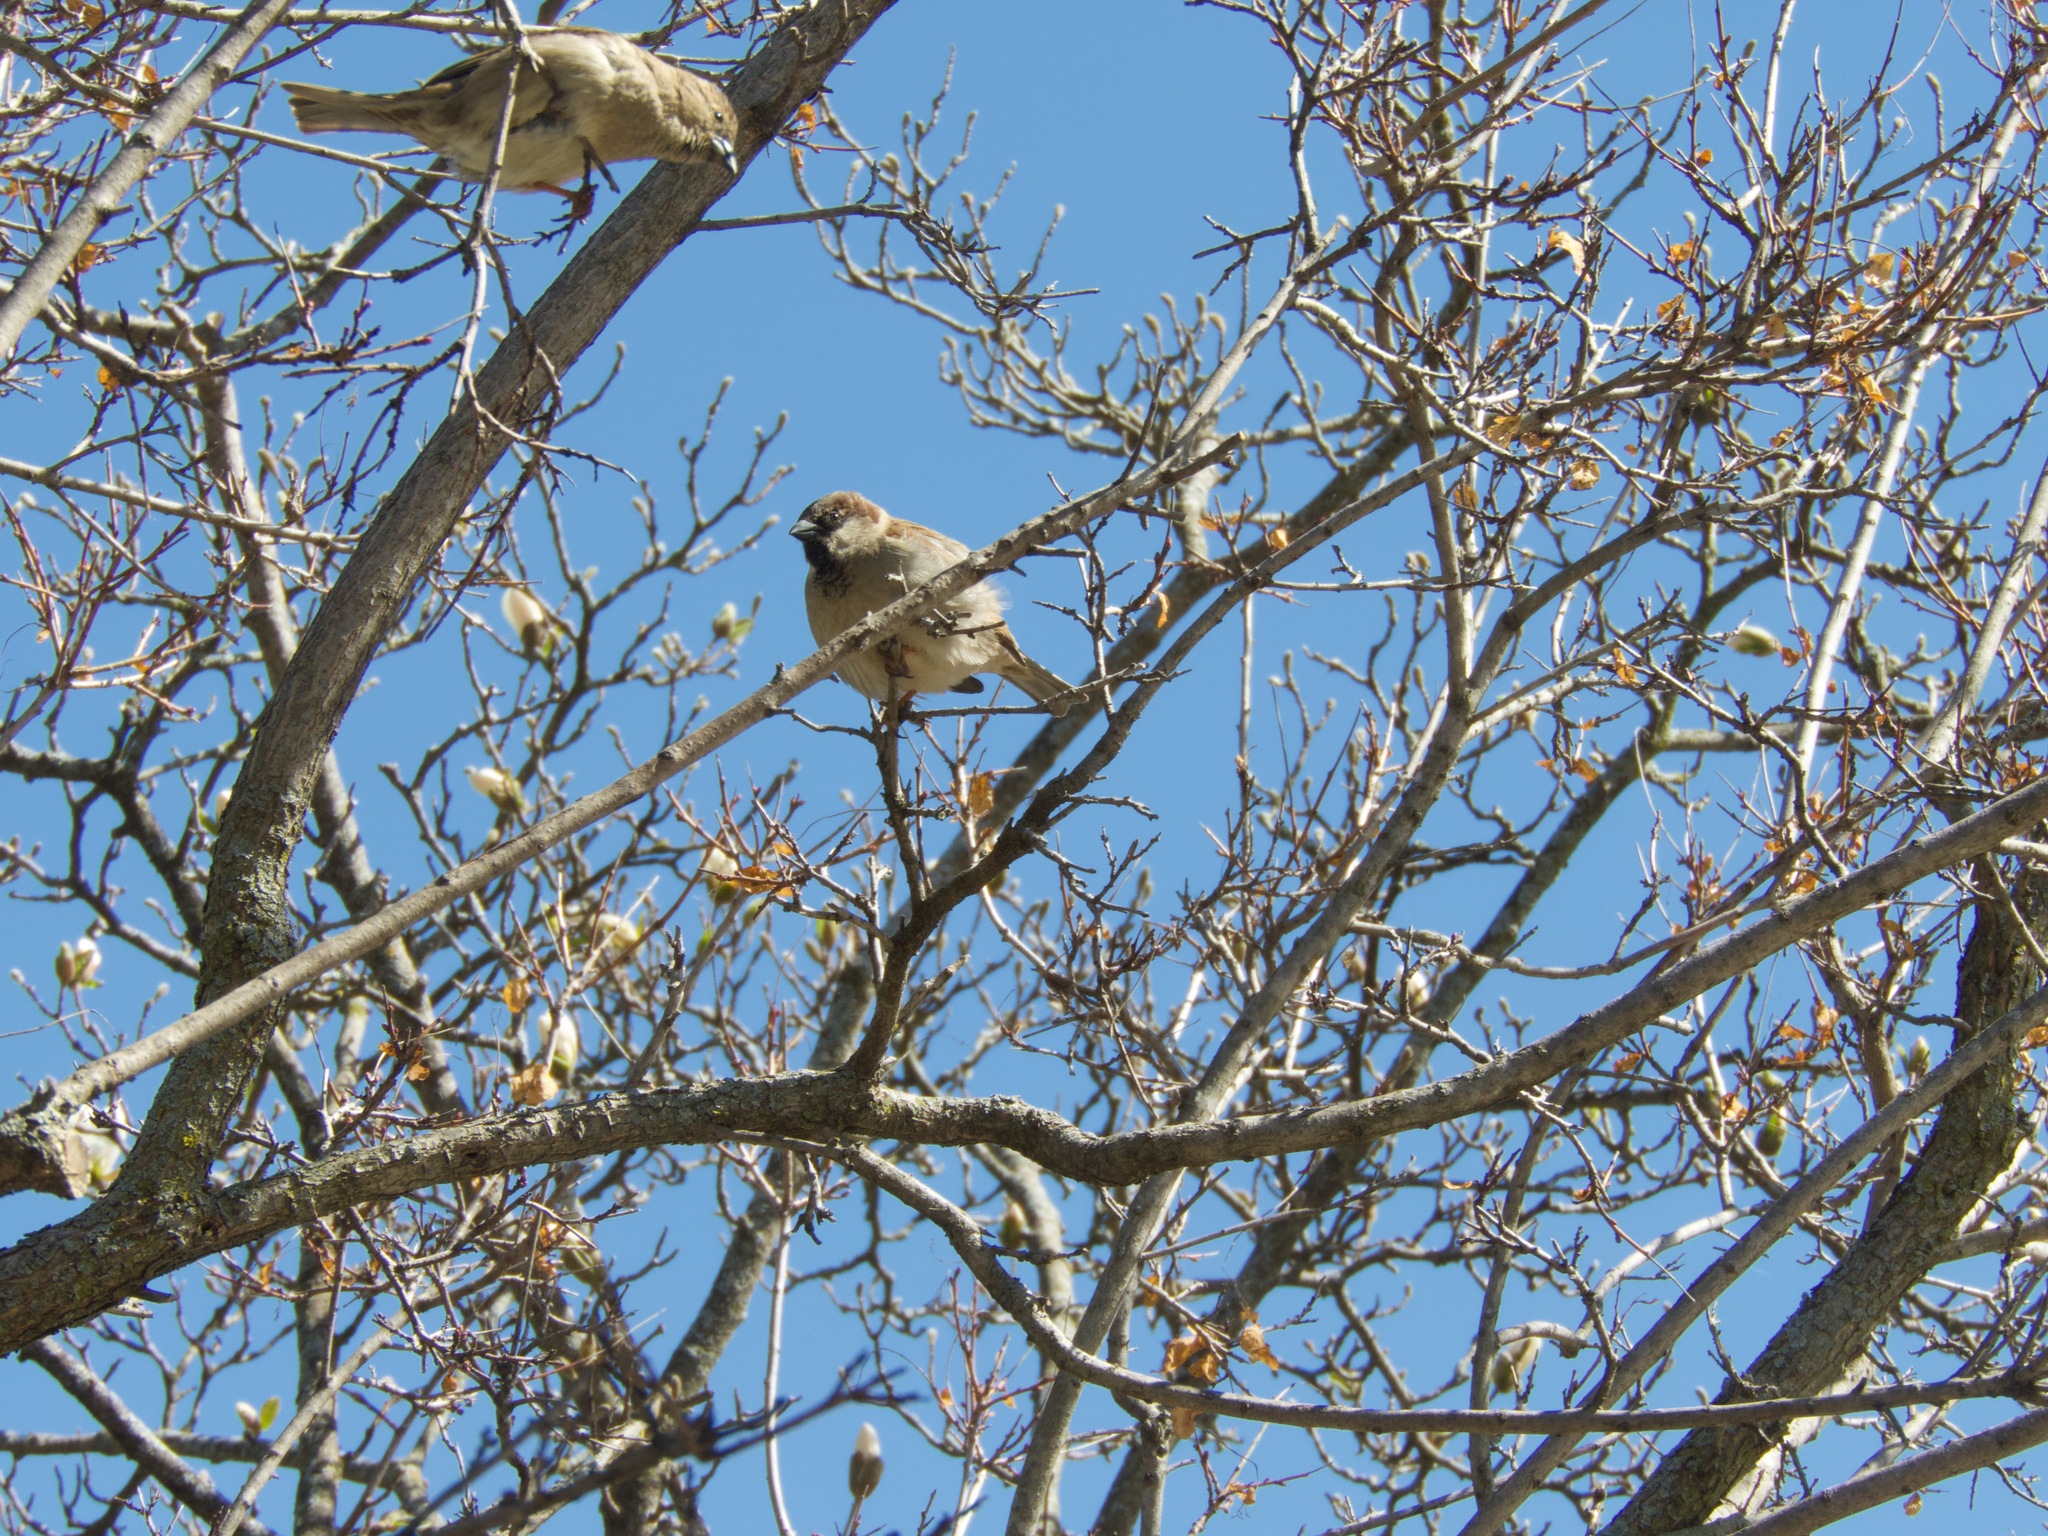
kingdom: Animalia
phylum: Chordata
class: Aves
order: Passeriformes
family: Passeridae
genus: Passer
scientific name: Passer domesticus
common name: House sparrow
